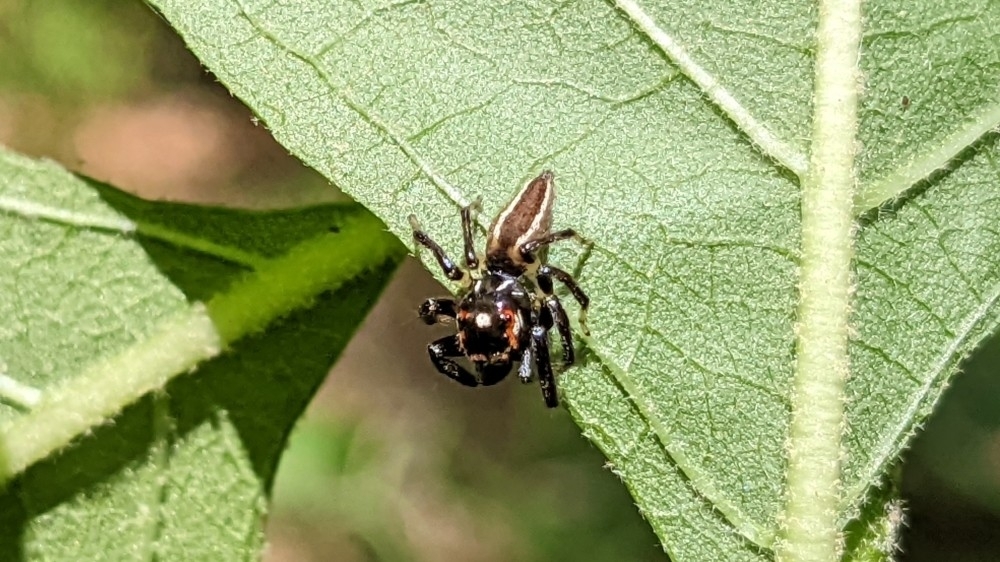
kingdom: Animalia
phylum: Arthropoda
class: Arachnida
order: Araneae
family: Salticidae
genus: Colonus
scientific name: Colonus sylvanus
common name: Jumping spiders
